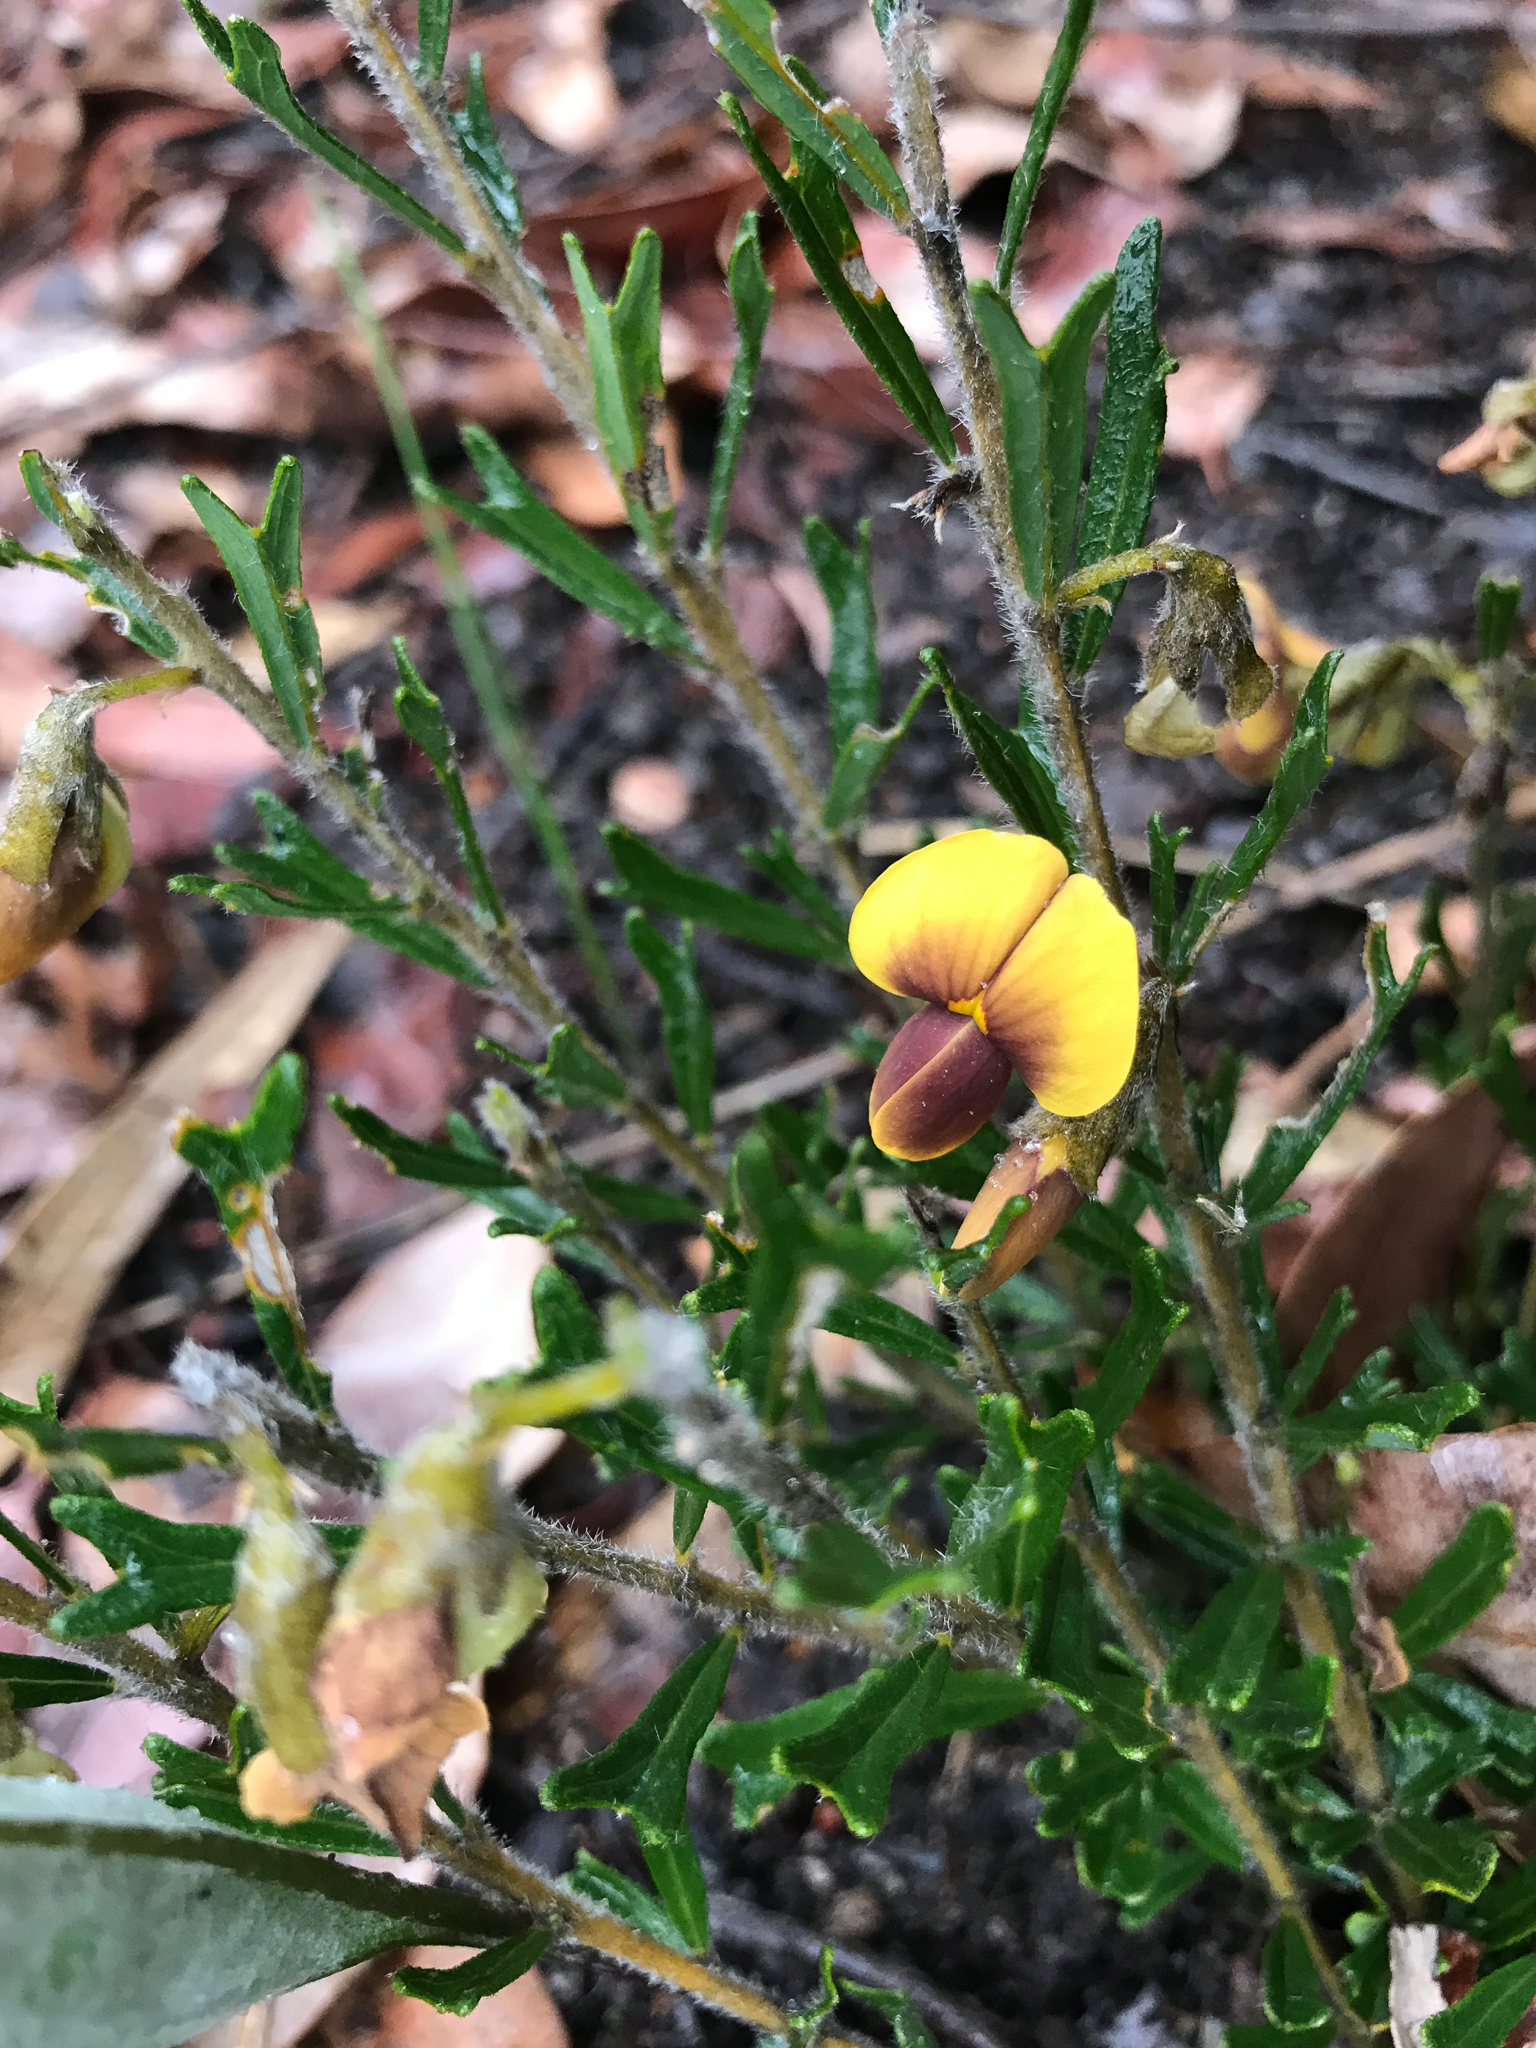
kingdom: Plantae
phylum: Tracheophyta
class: Magnoliopsida
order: Fabales
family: Fabaceae
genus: Cristonia
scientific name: Cristonia biloba
